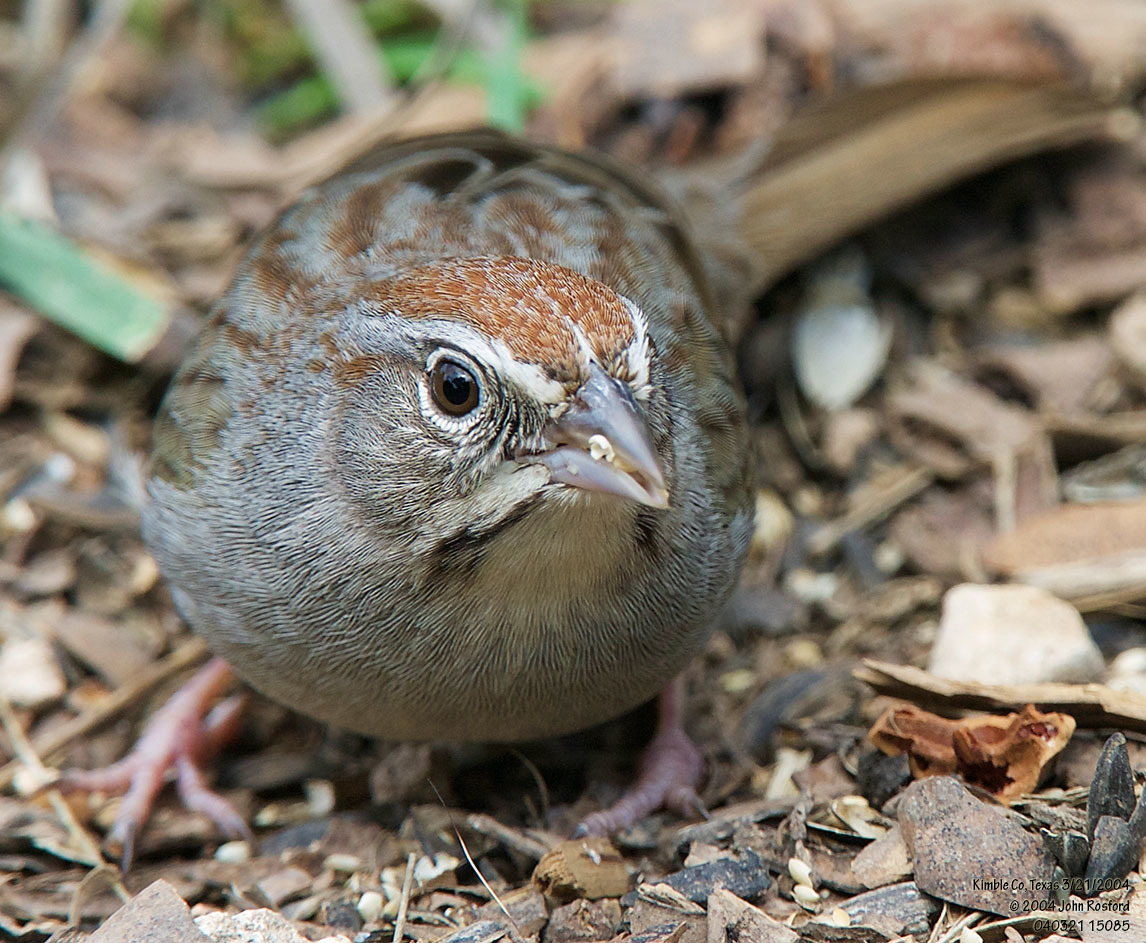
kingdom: Animalia
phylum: Chordata
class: Aves
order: Passeriformes
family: Passerellidae
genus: Aimophila
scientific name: Aimophila ruficeps
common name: Rufous-crowned sparrow
